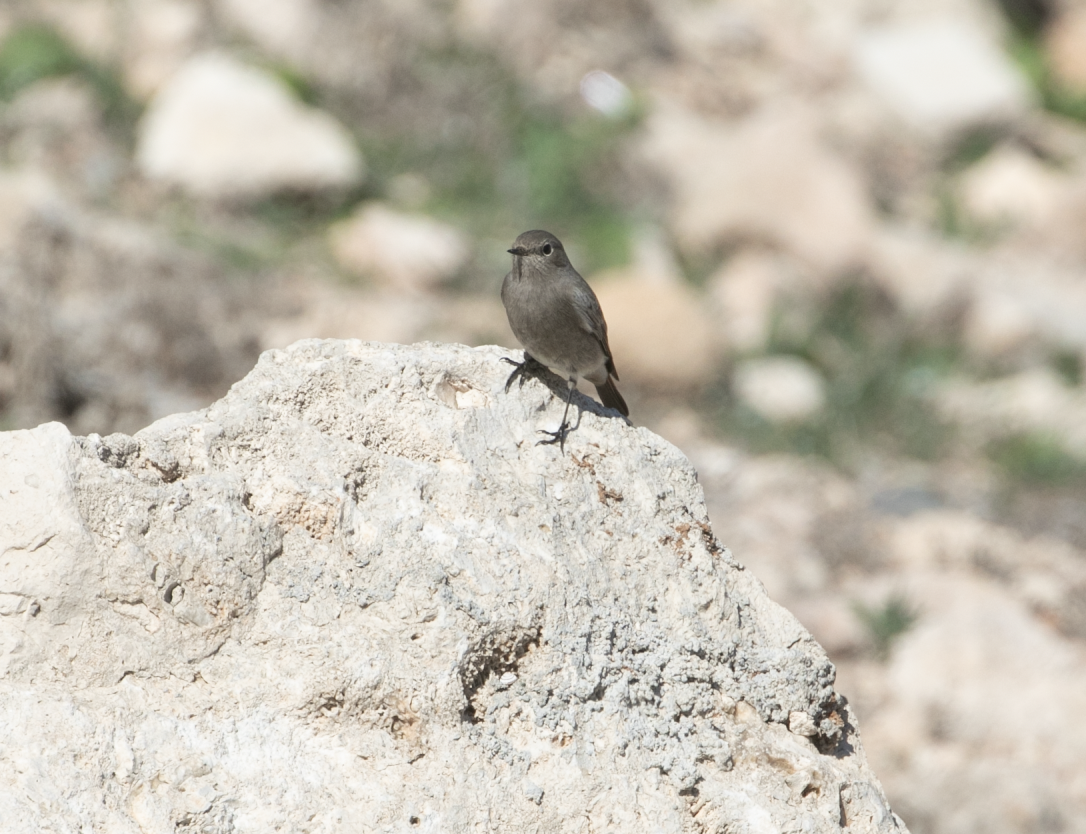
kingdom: Animalia
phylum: Chordata
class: Aves
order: Passeriformes
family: Muscicapidae
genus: Phoenicurus
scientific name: Phoenicurus ochruros
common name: Black redstart
